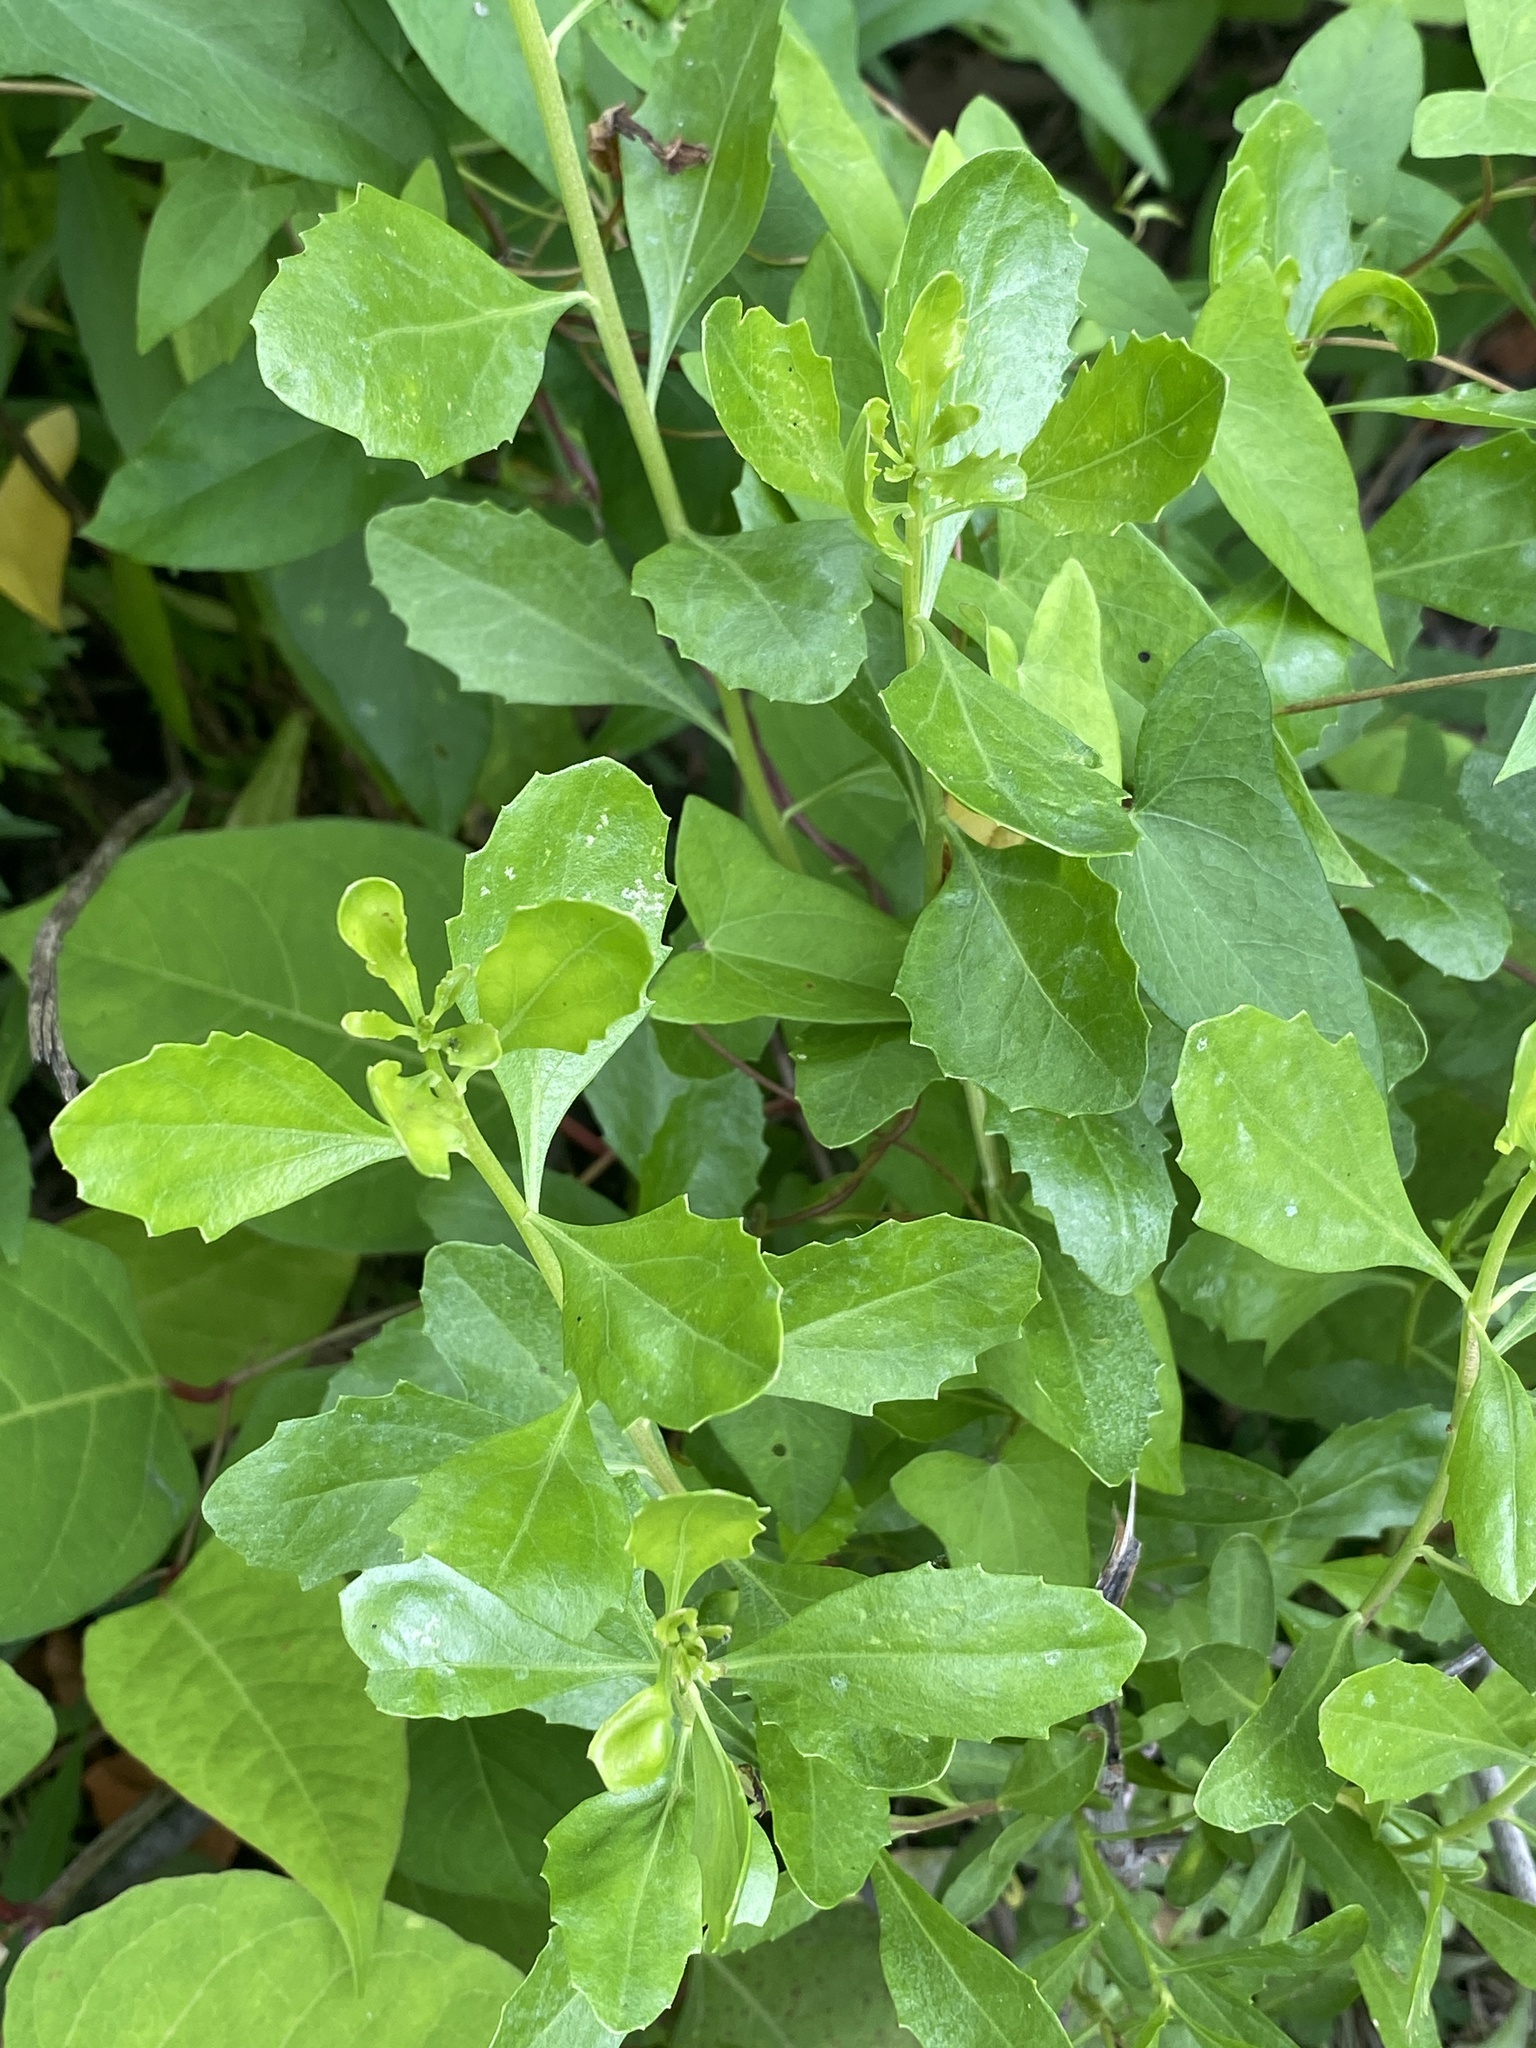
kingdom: Plantae
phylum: Tracheophyta
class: Magnoliopsida
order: Asterales
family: Asteraceae
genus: Baccharis
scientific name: Baccharis halimifolia
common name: Eastern baccharis
